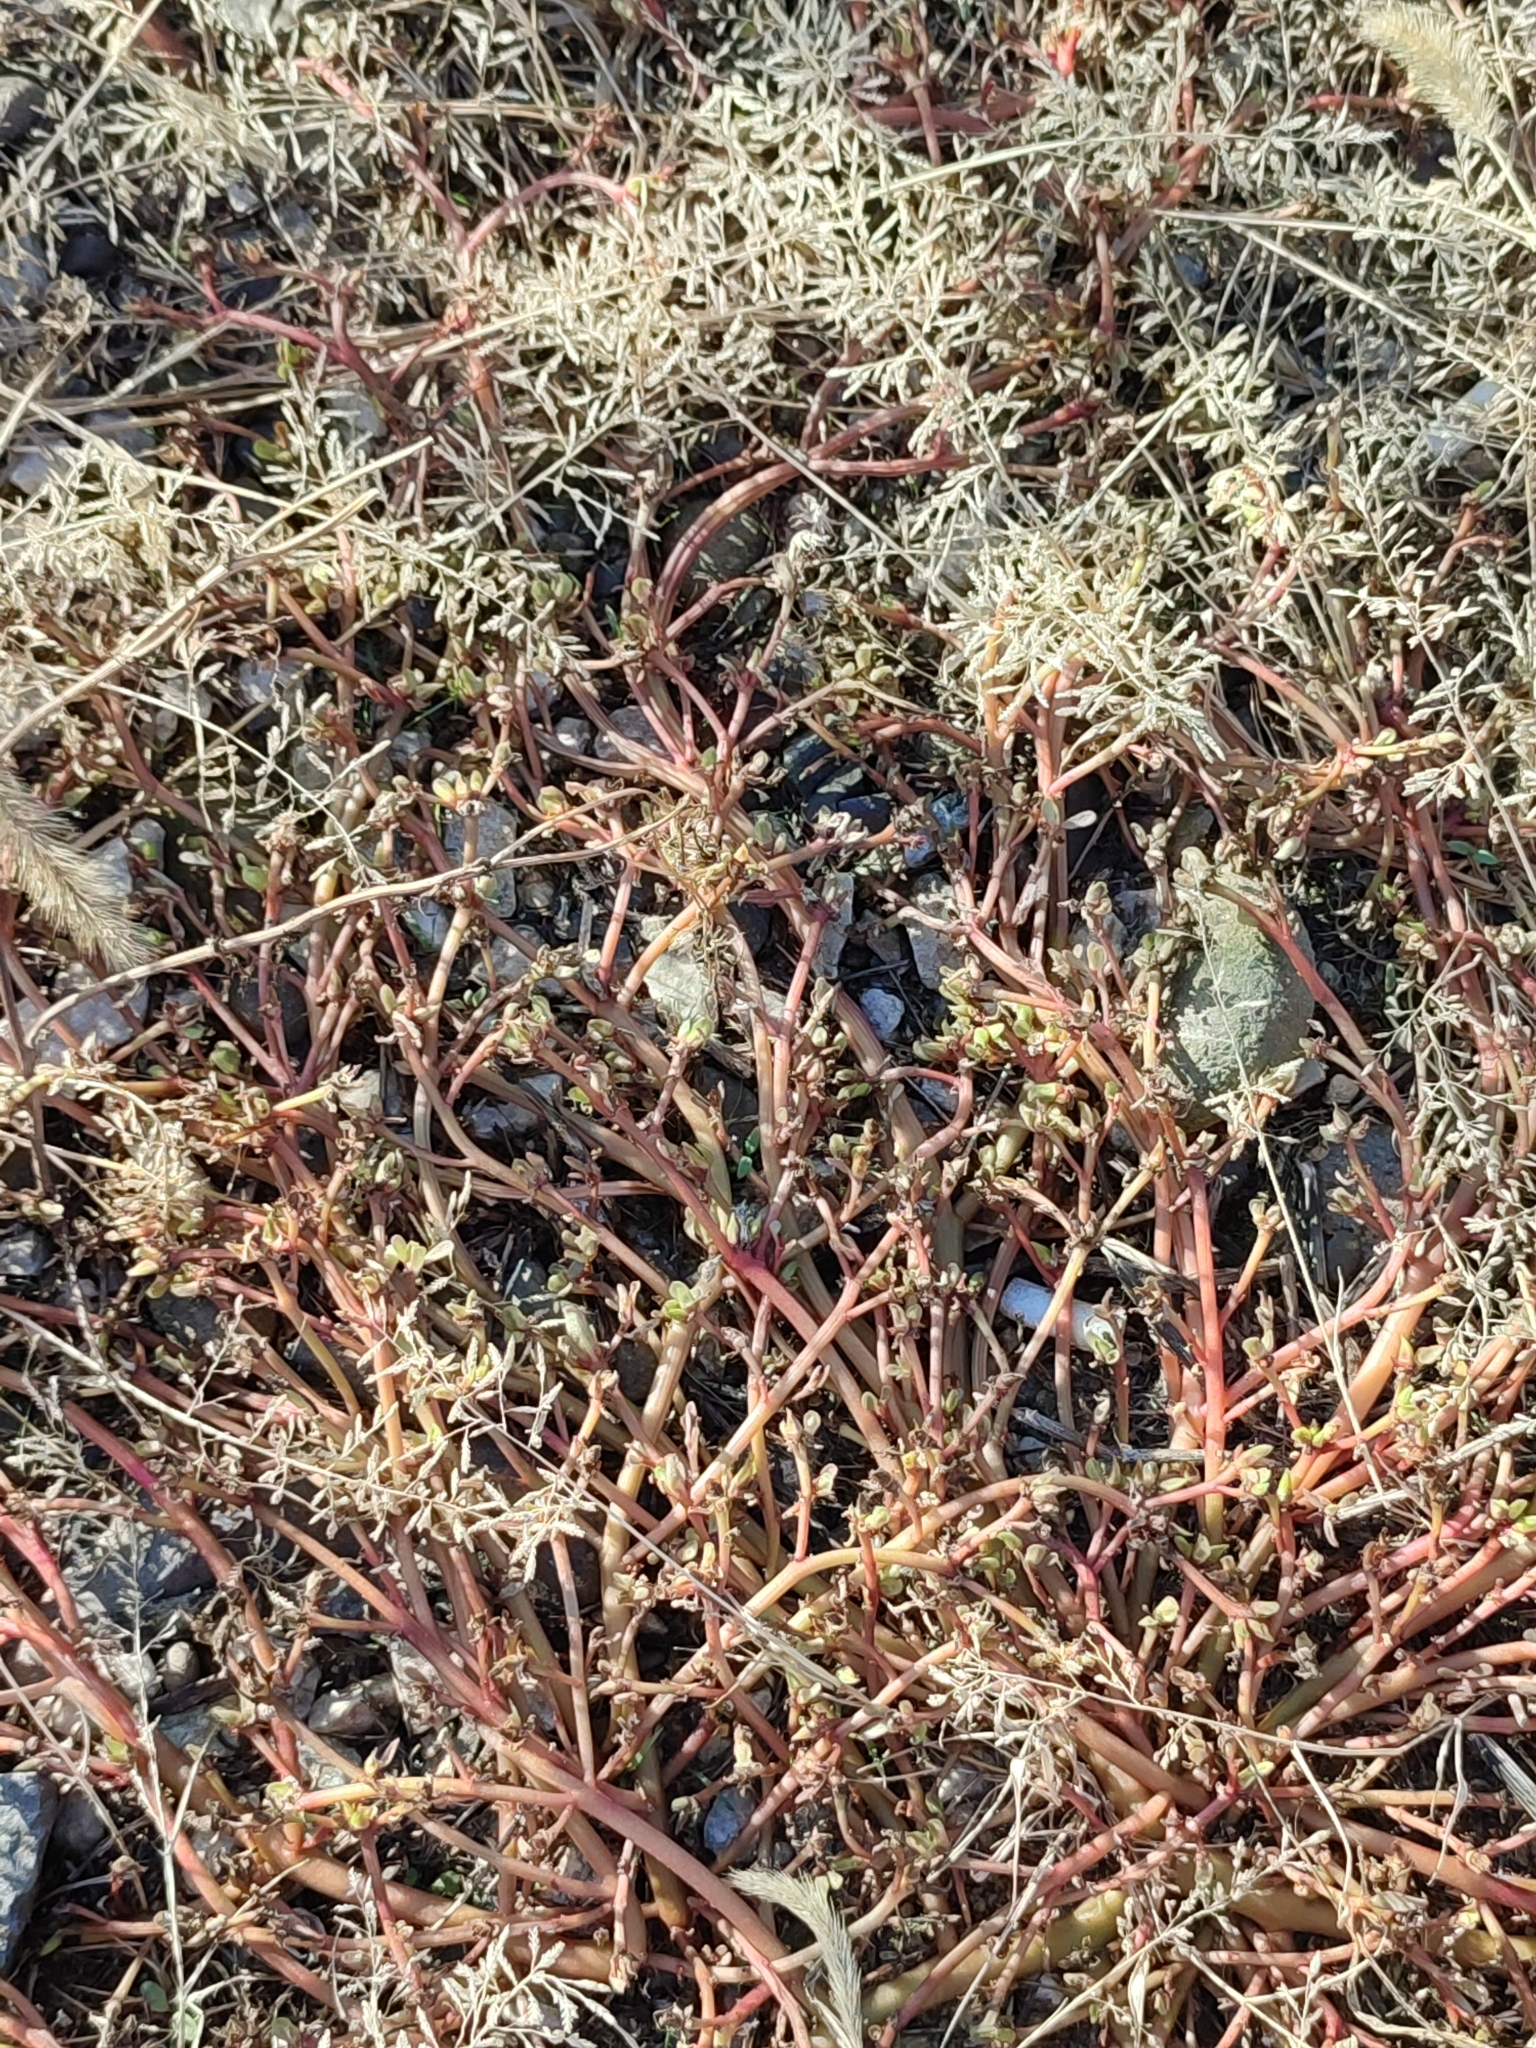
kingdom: Plantae
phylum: Tracheophyta
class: Magnoliopsida
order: Caryophyllales
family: Portulacaceae
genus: Portulaca
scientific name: Portulaca oleracea
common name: Common purslane
